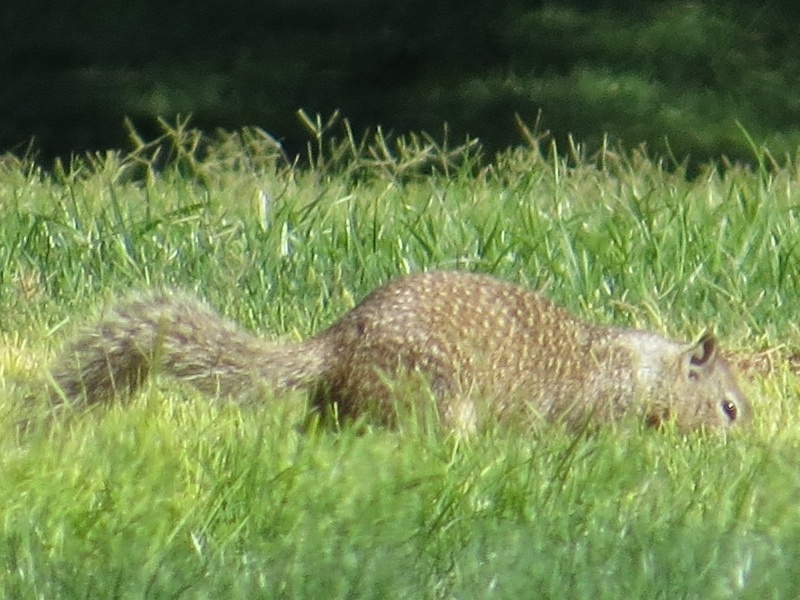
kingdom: Animalia
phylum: Chordata
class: Mammalia
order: Rodentia
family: Sciuridae
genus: Otospermophilus
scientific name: Otospermophilus beecheyi
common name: California ground squirrel
